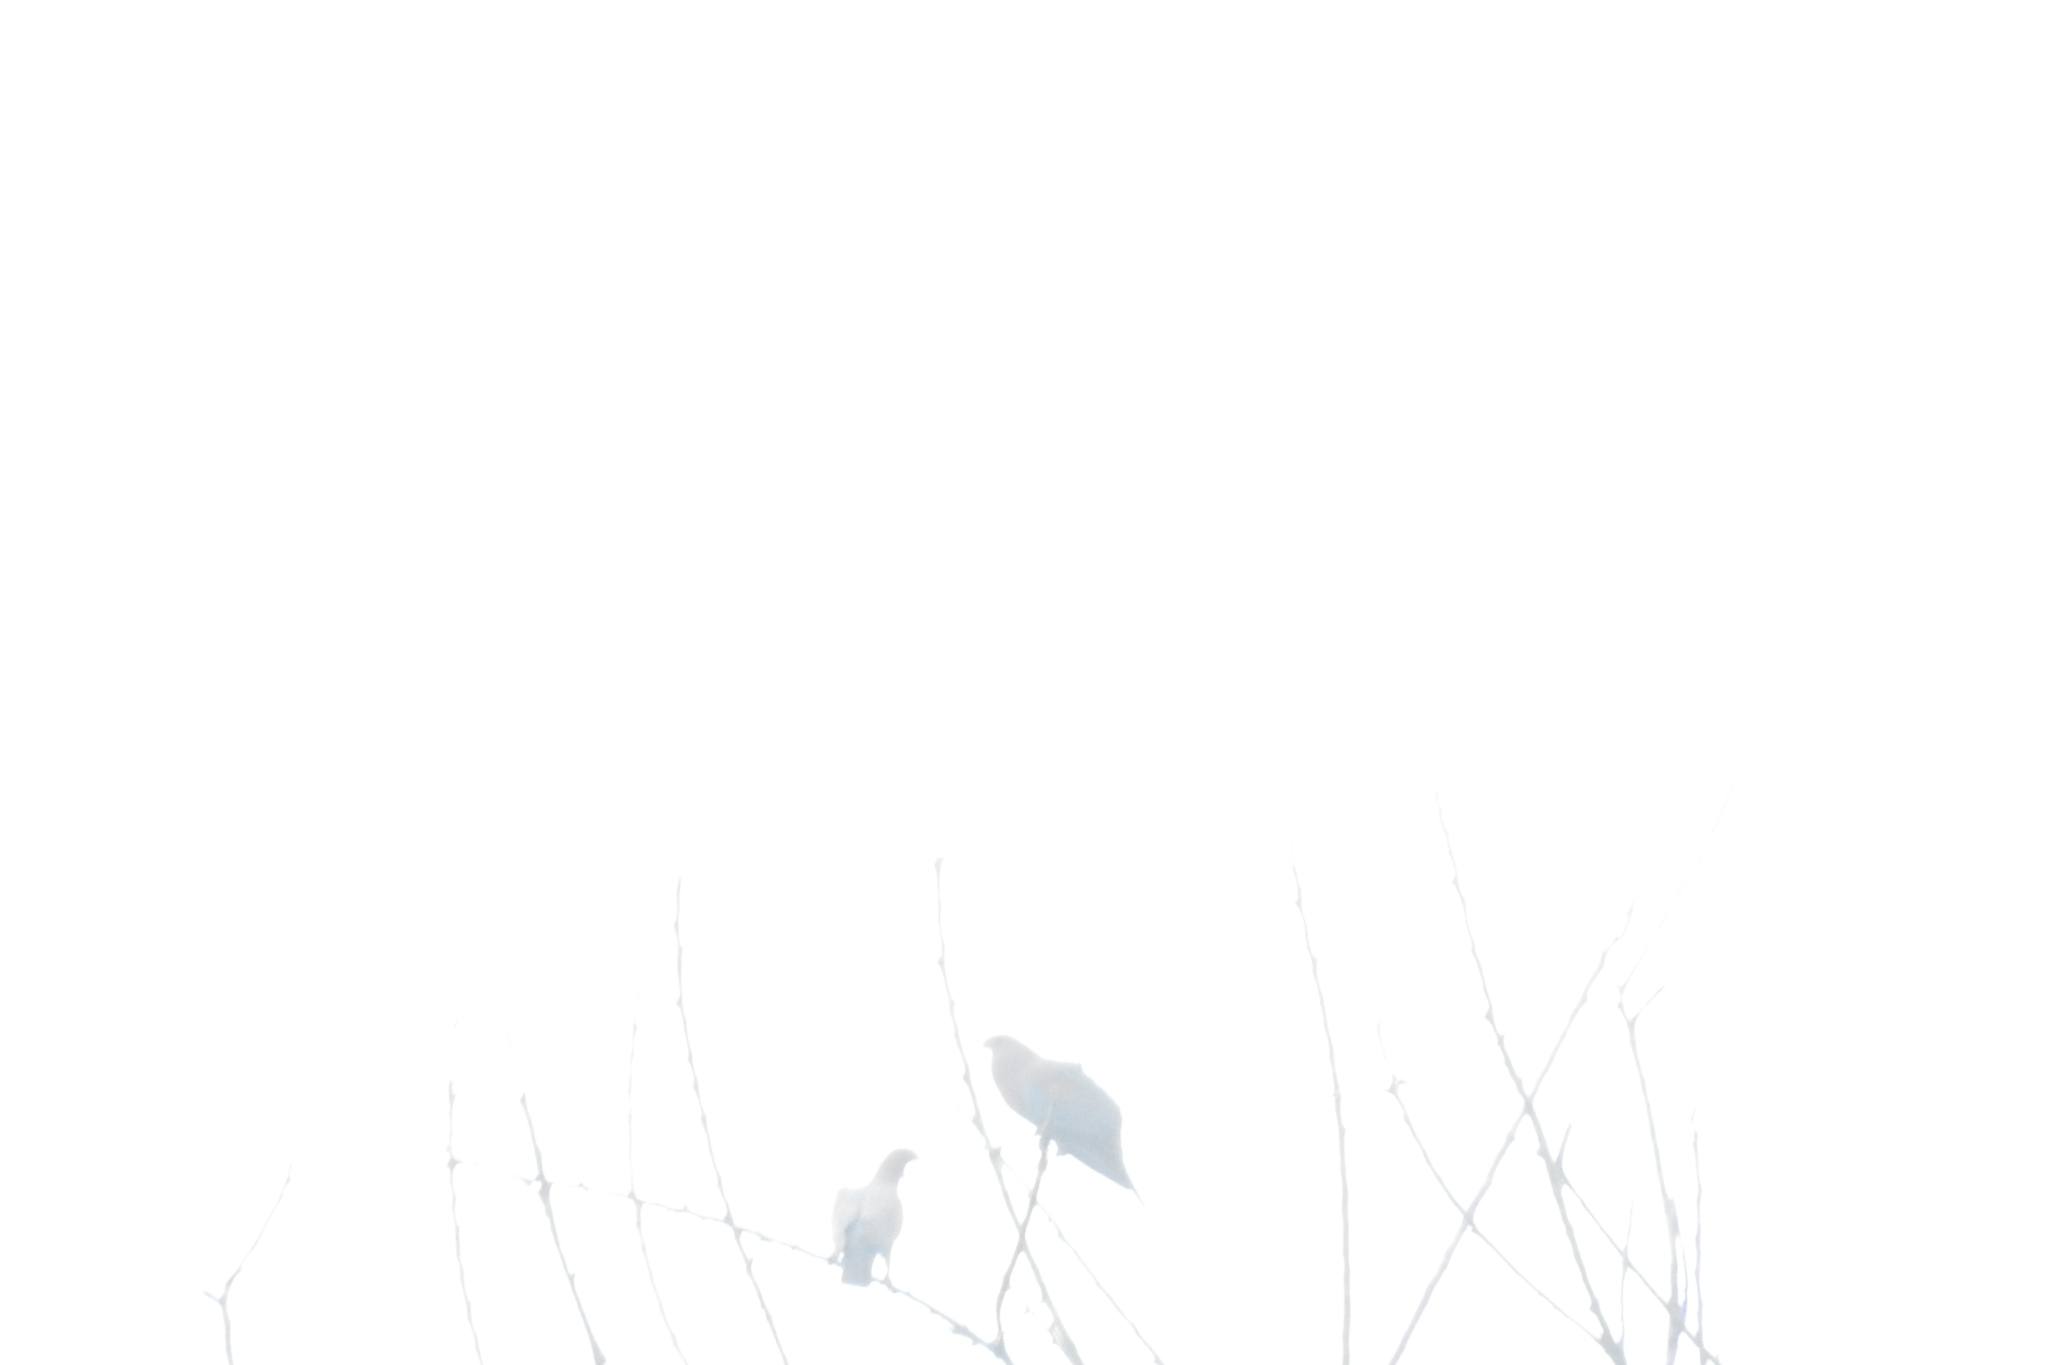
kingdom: Animalia
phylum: Chordata
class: Aves
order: Columbiformes
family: Columbidae
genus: Patagioenas
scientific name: Patagioenas flavirostris
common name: Red-billed pigeon
